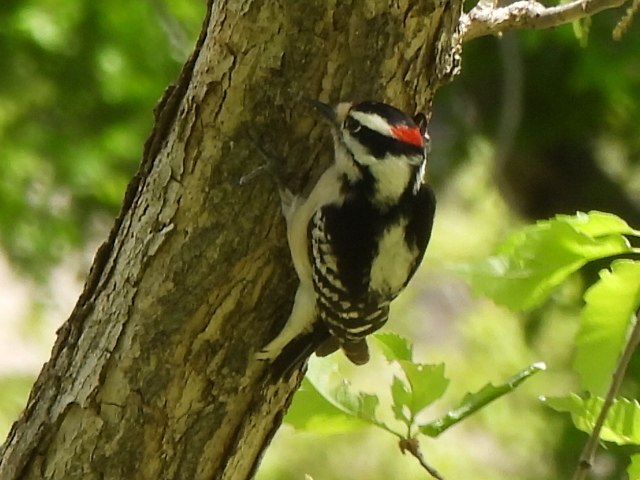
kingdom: Animalia
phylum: Chordata
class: Aves
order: Piciformes
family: Picidae
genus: Dryobates
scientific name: Dryobates pubescens
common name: Downy woodpecker
